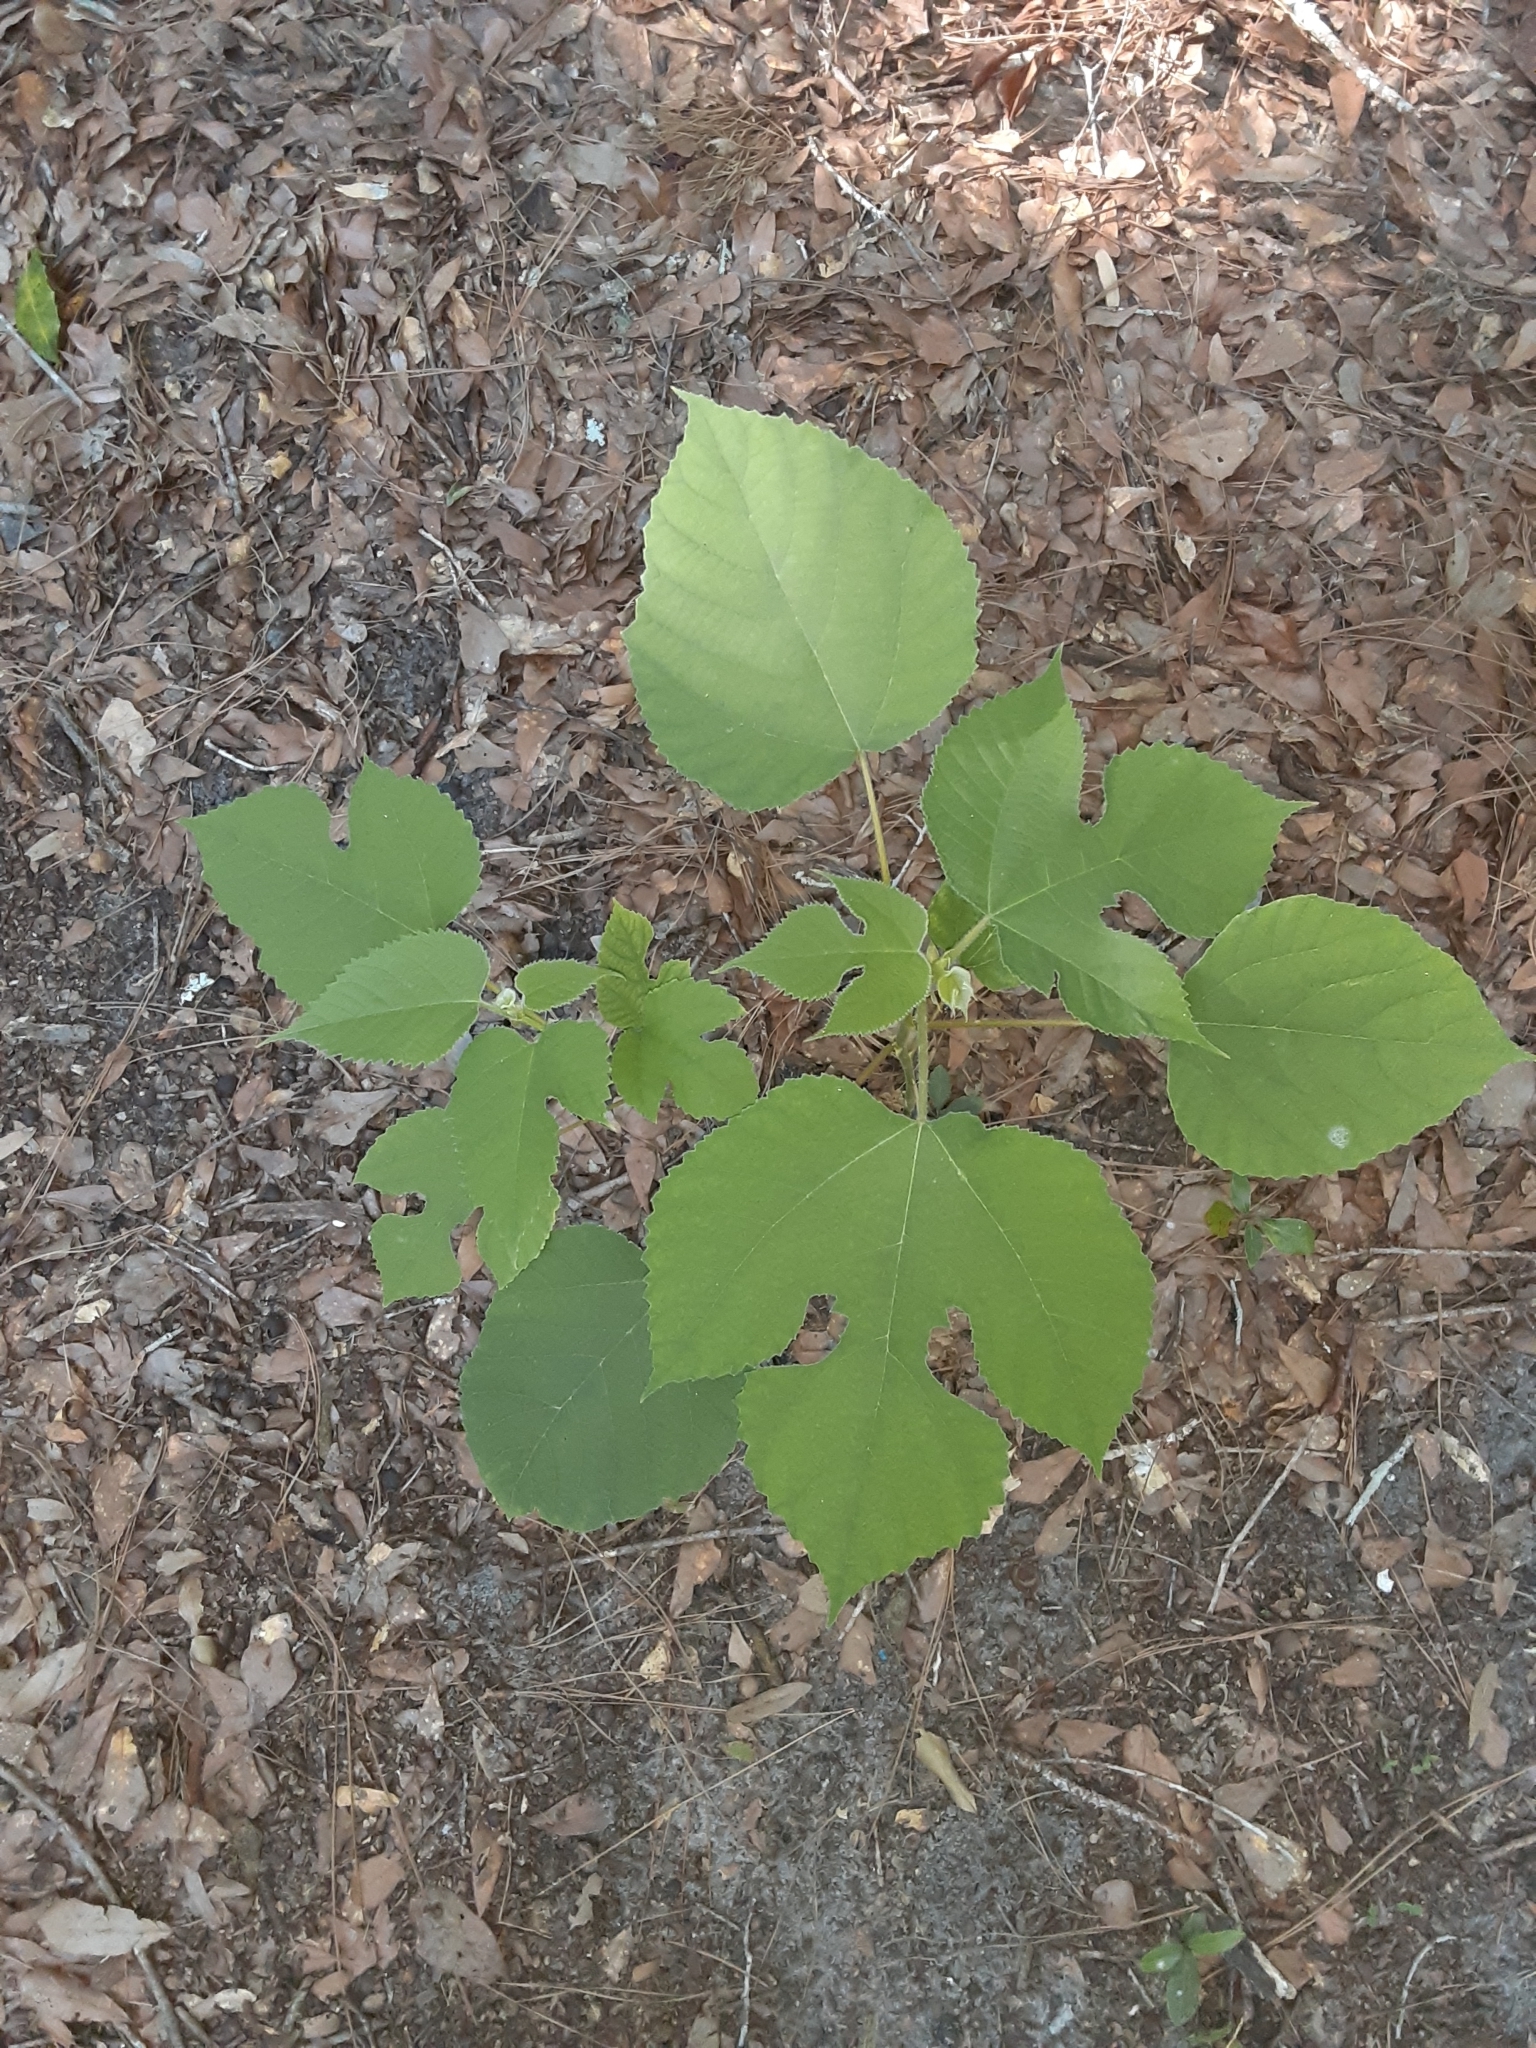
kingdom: Plantae
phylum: Tracheophyta
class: Magnoliopsida
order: Rosales
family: Moraceae
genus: Broussonetia
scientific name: Broussonetia papyrifera
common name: Paper mulberry
